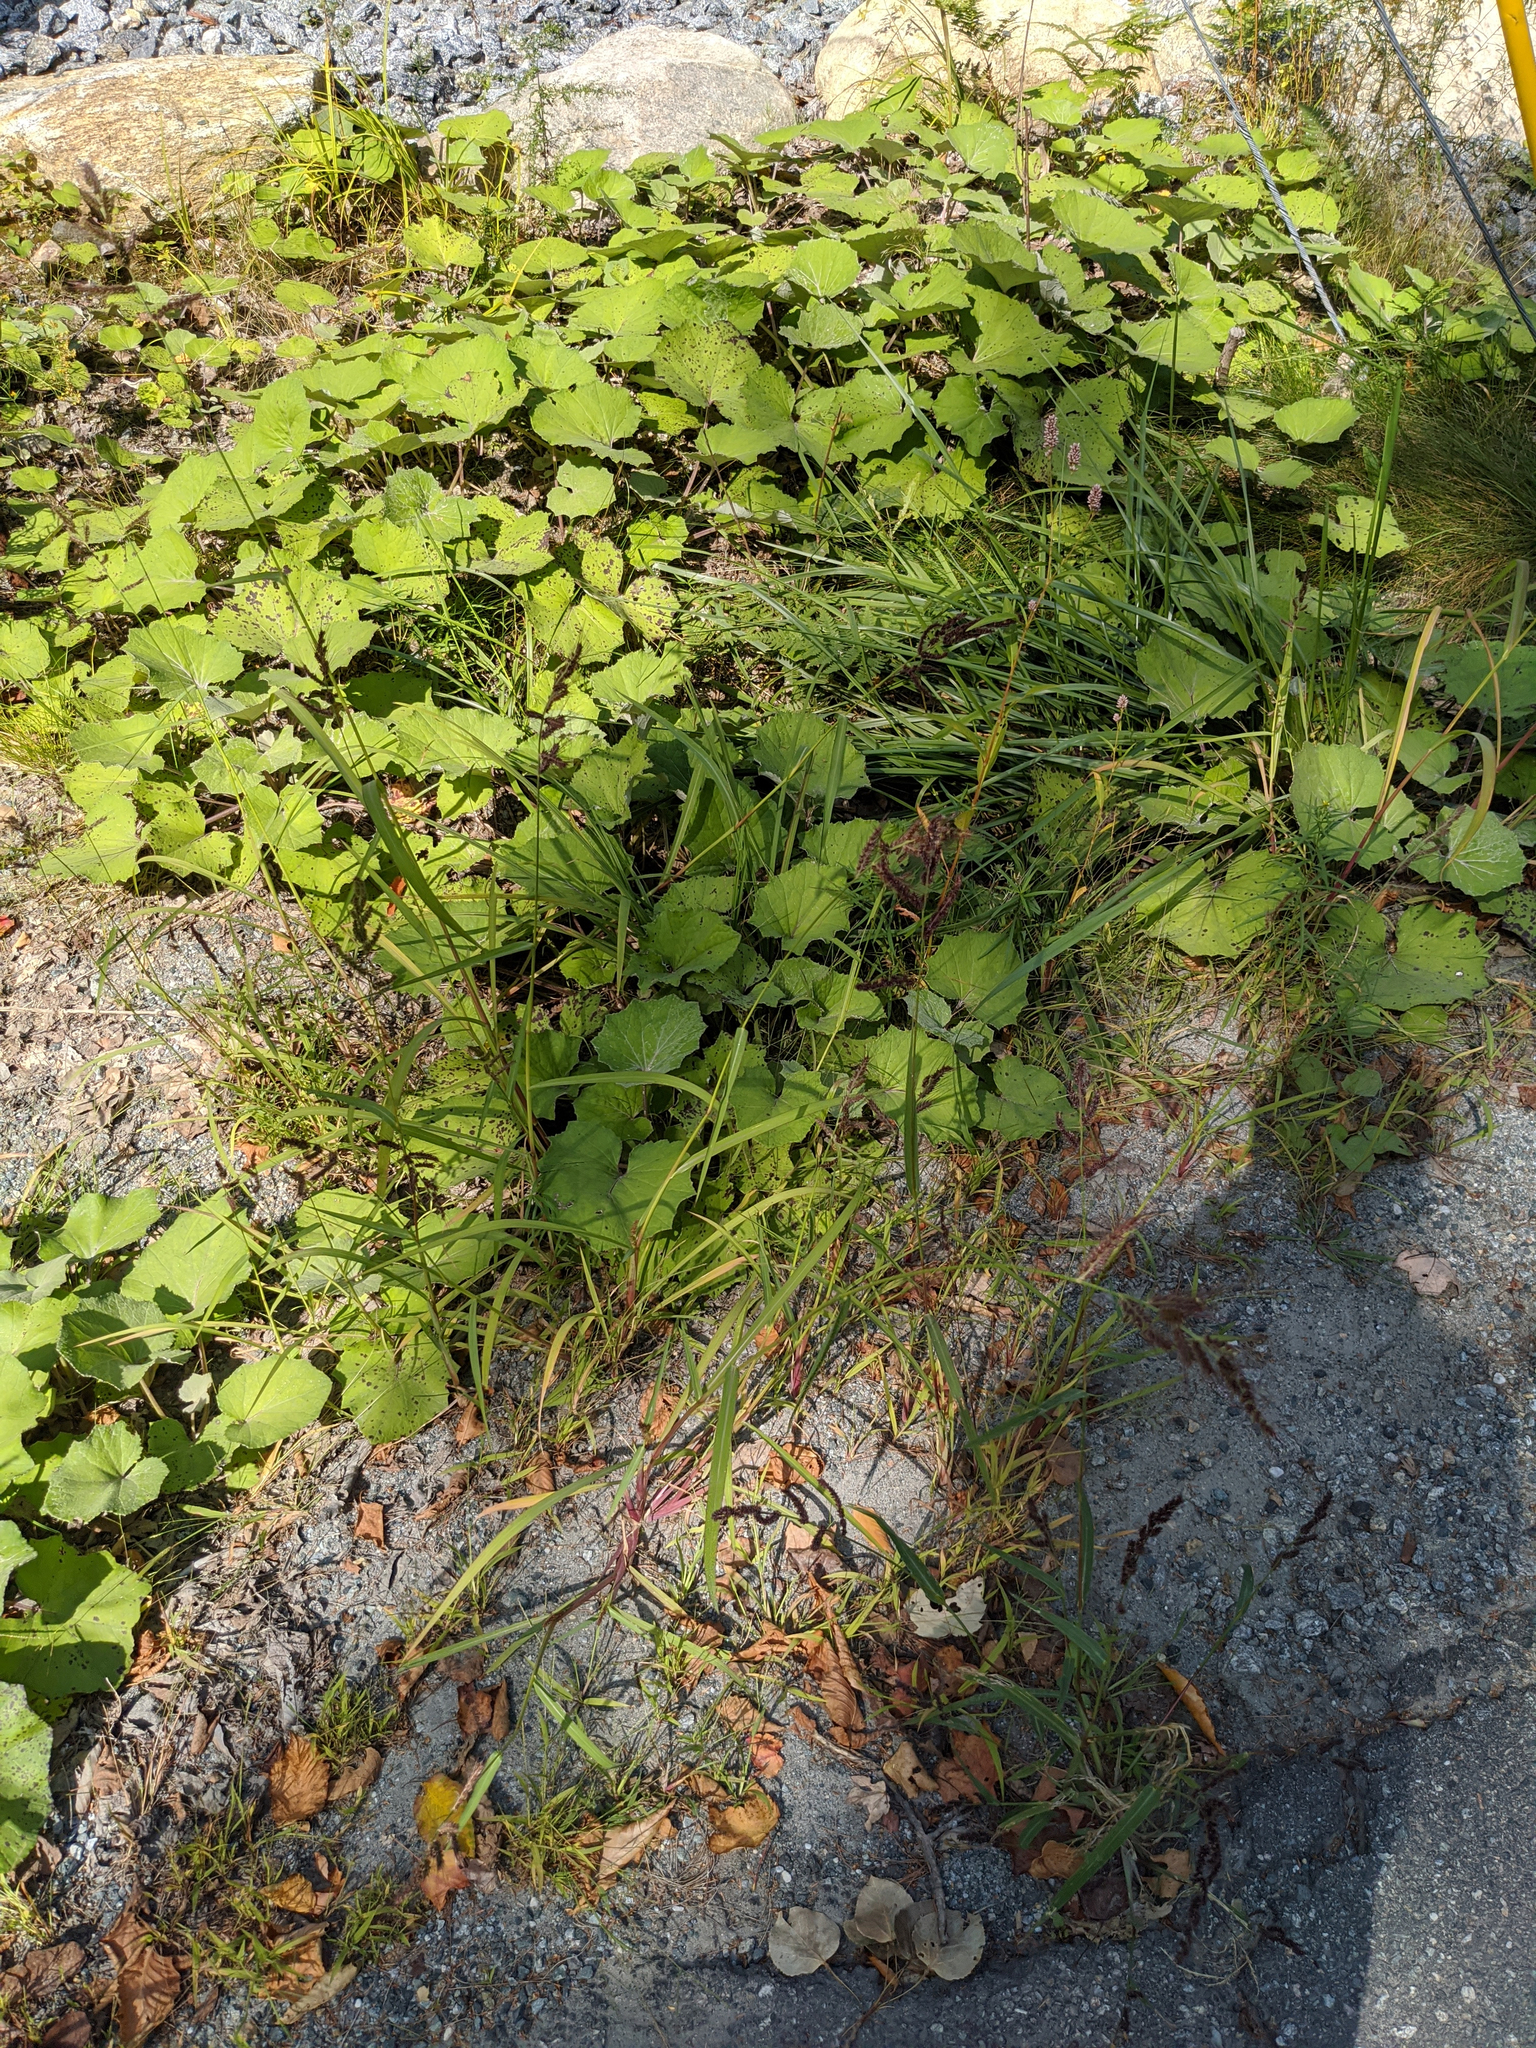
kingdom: Plantae
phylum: Tracheophyta
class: Magnoliopsida
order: Asterales
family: Asteraceae
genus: Tussilago
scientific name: Tussilago farfara
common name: Coltsfoot
